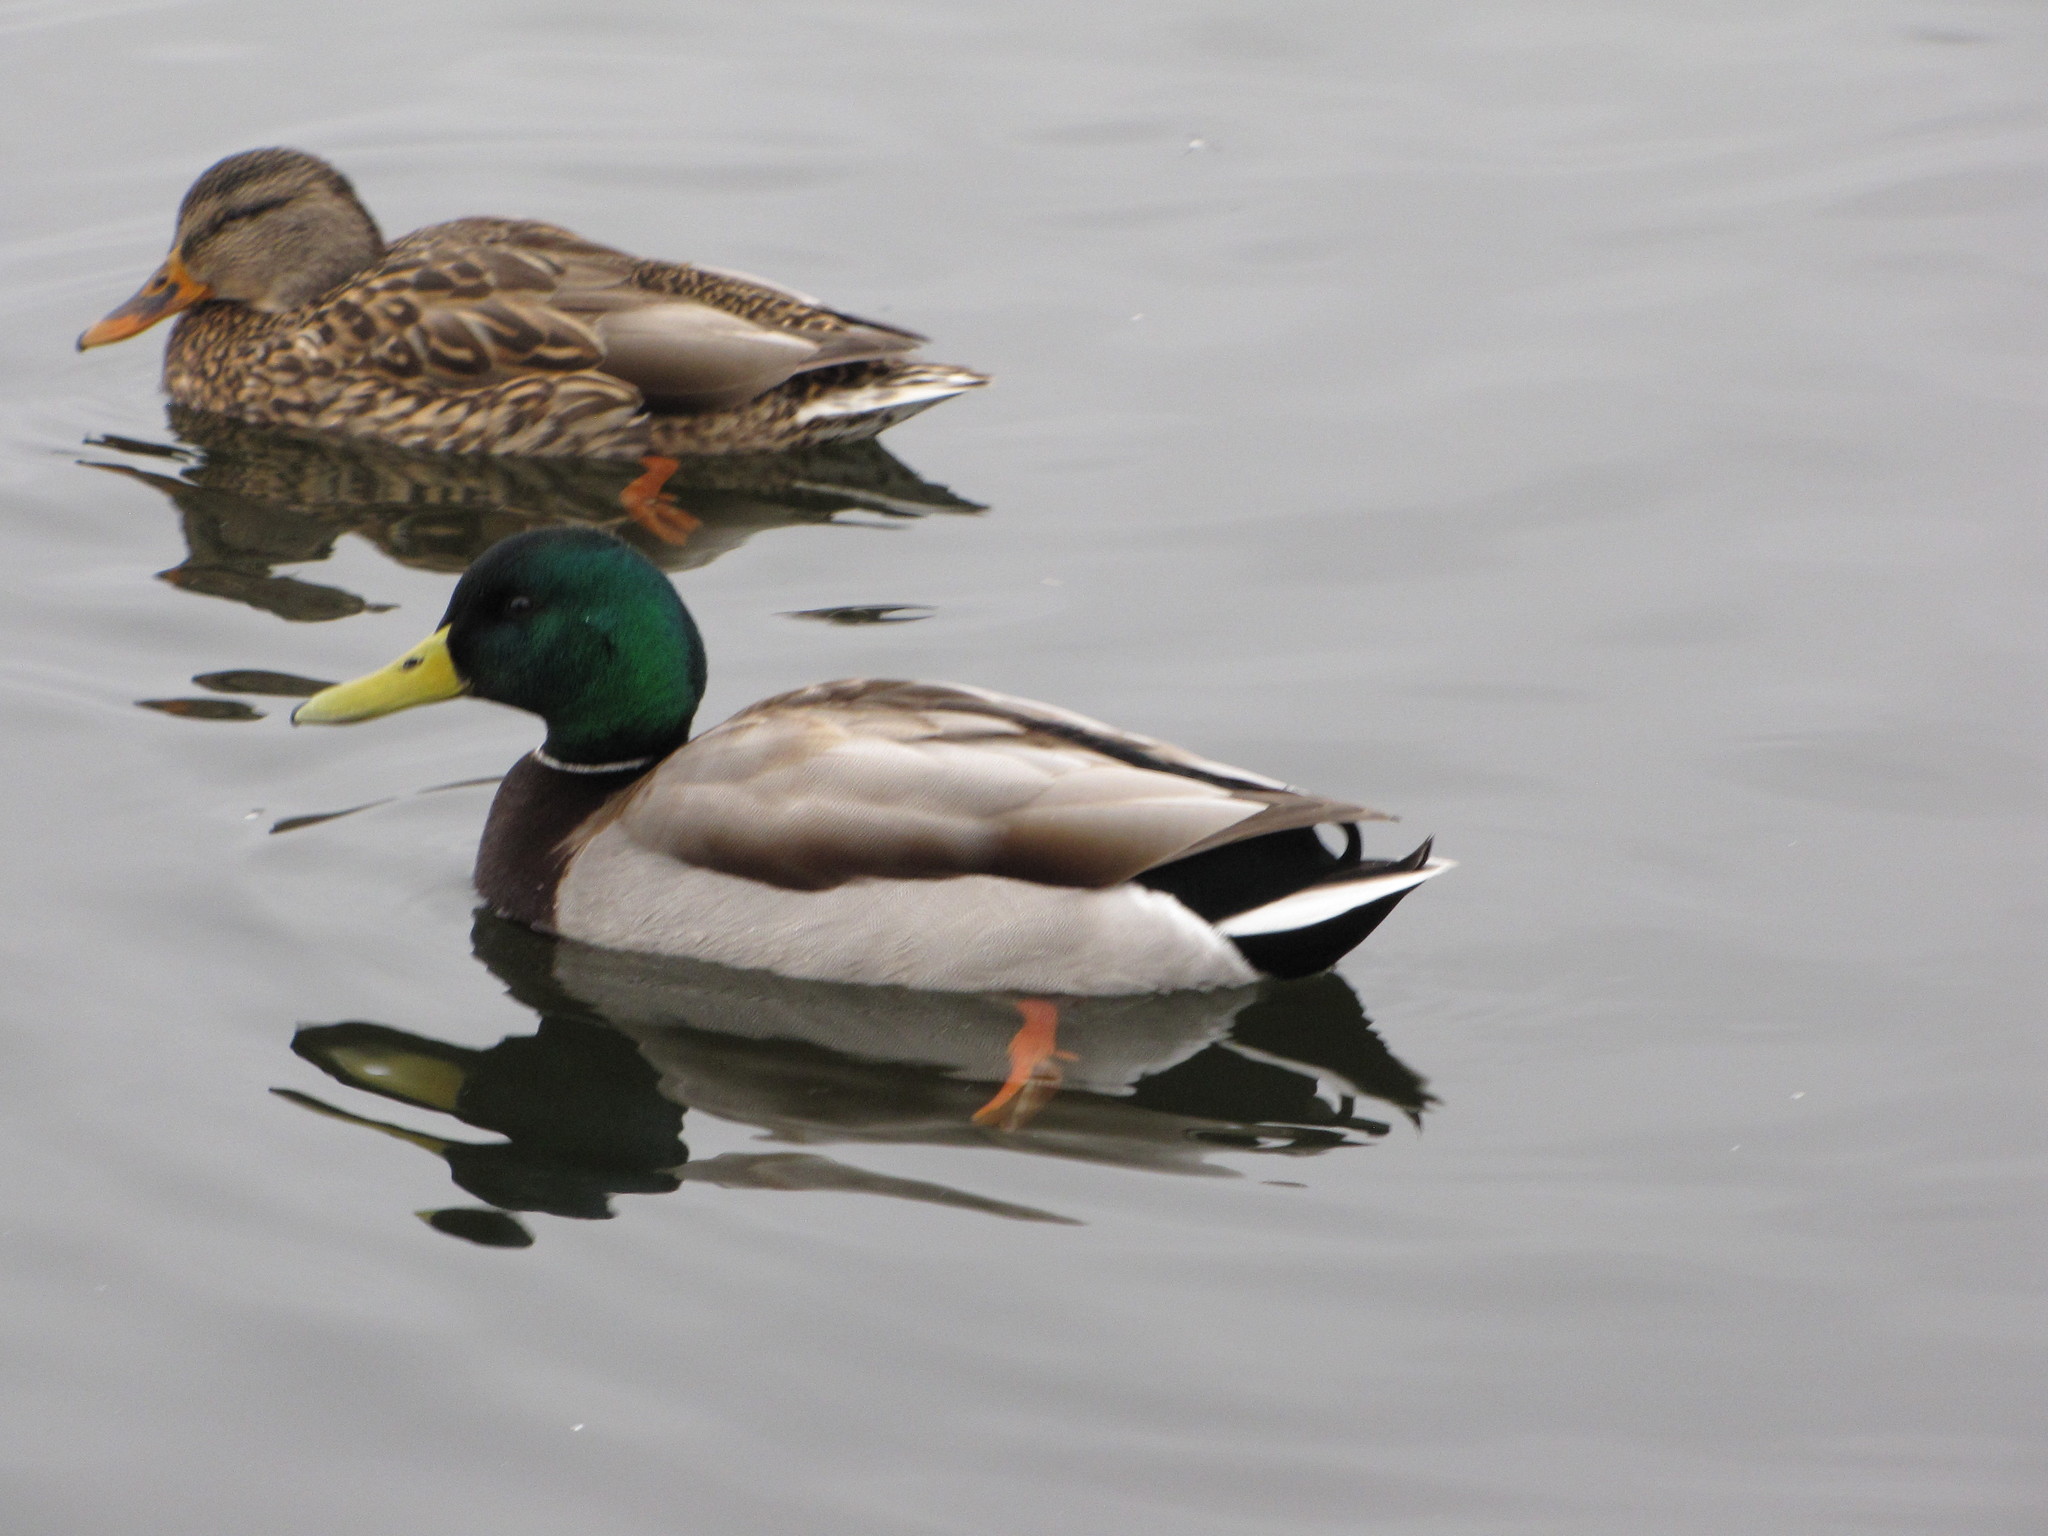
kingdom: Animalia
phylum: Chordata
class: Aves
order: Anseriformes
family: Anatidae
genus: Anas
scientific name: Anas platyrhynchos
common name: Mallard
